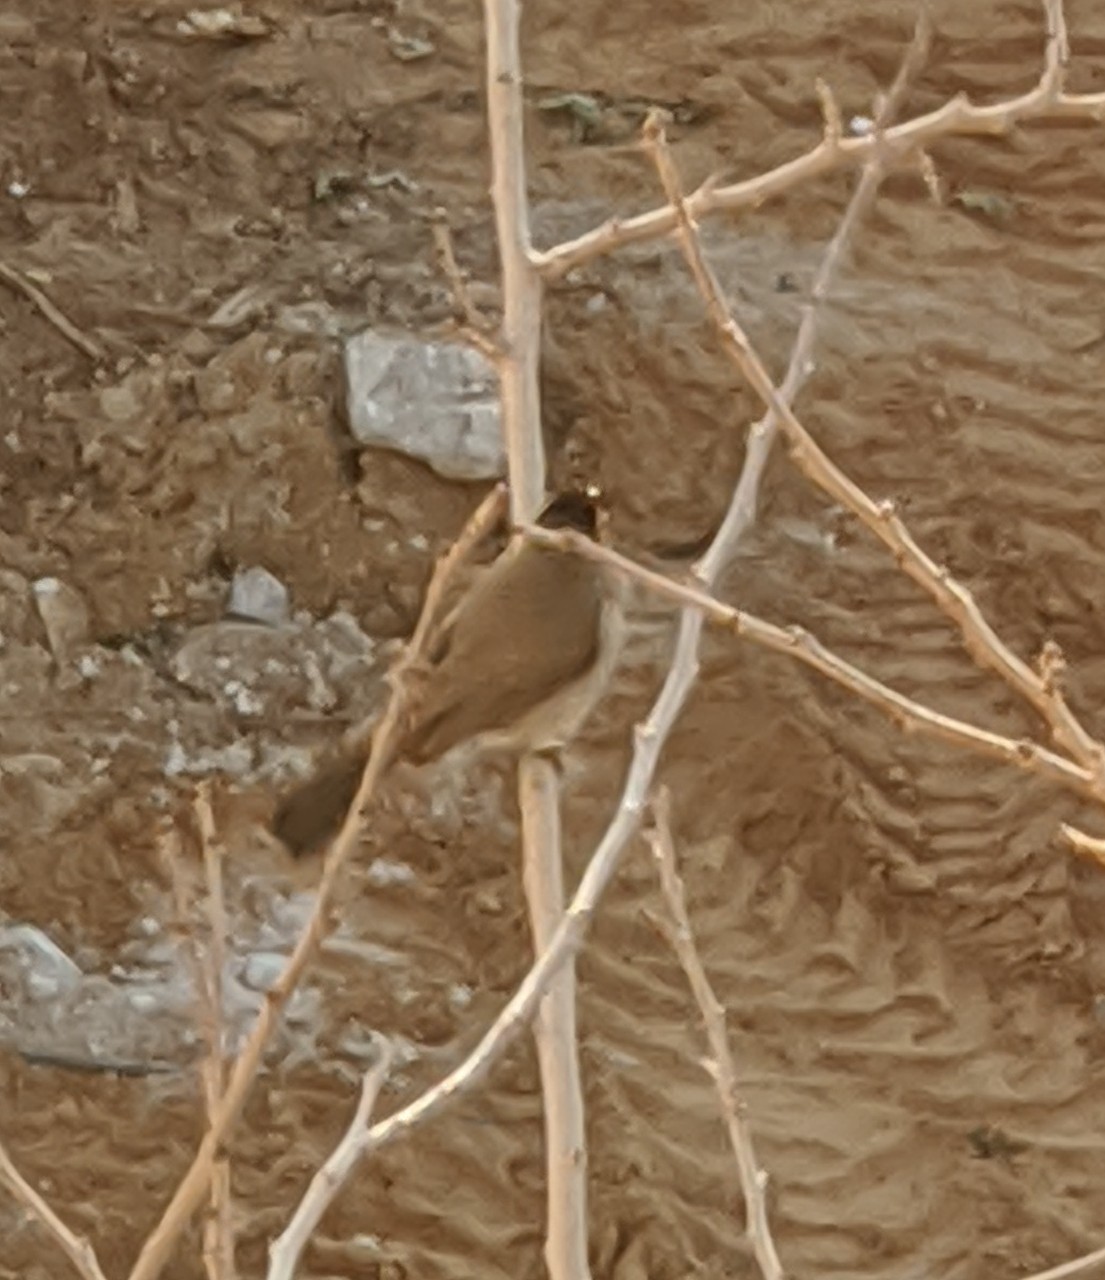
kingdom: Animalia
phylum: Chordata
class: Aves
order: Passeriformes
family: Pycnonotidae
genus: Pycnonotus
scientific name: Pycnonotus xanthopygos
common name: White-spectacled bulbul
